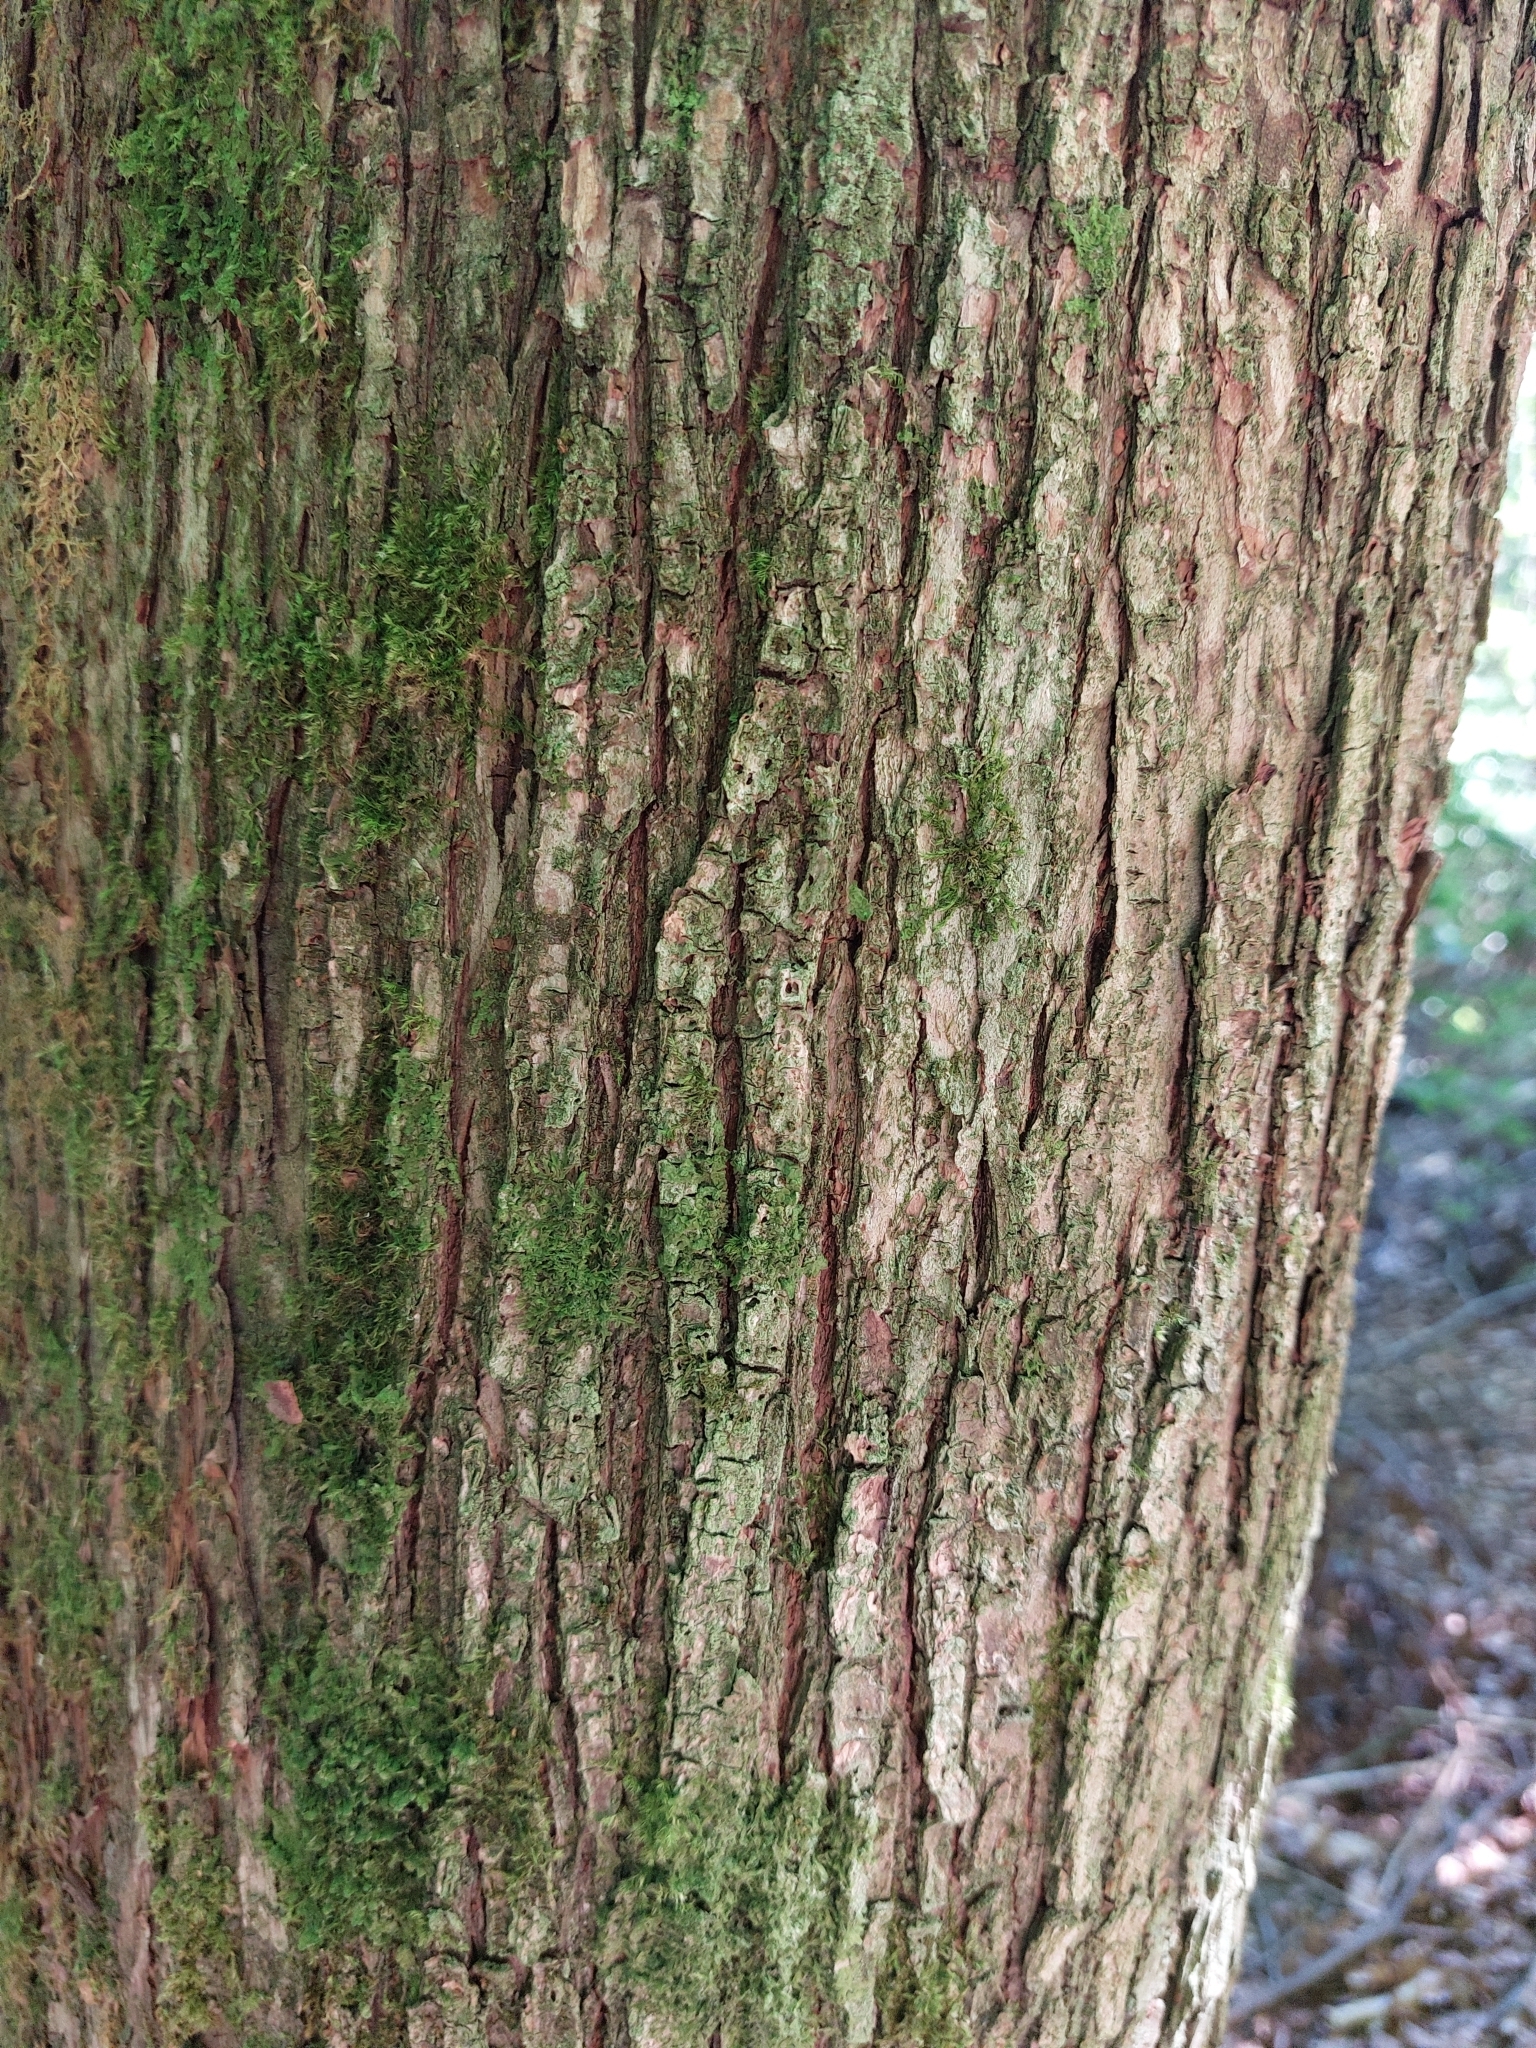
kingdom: Plantae
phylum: Tracheophyta
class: Magnoliopsida
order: Rosales
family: Ulmaceae
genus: Ulmus
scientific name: Ulmus glabra
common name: Wych elm
